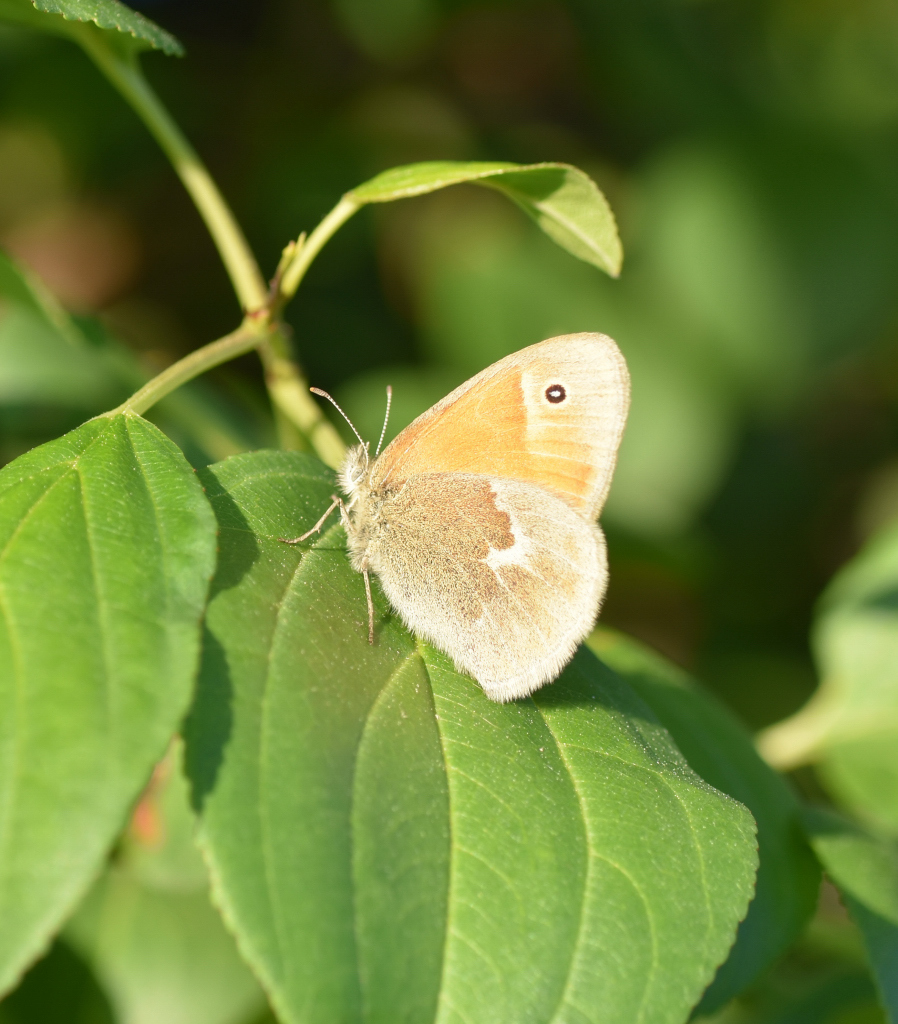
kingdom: Animalia
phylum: Arthropoda
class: Insecta
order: Lepidoptera
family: Nymphalidae
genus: Coenonympha
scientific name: Coenonympha california
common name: Common ringlet
